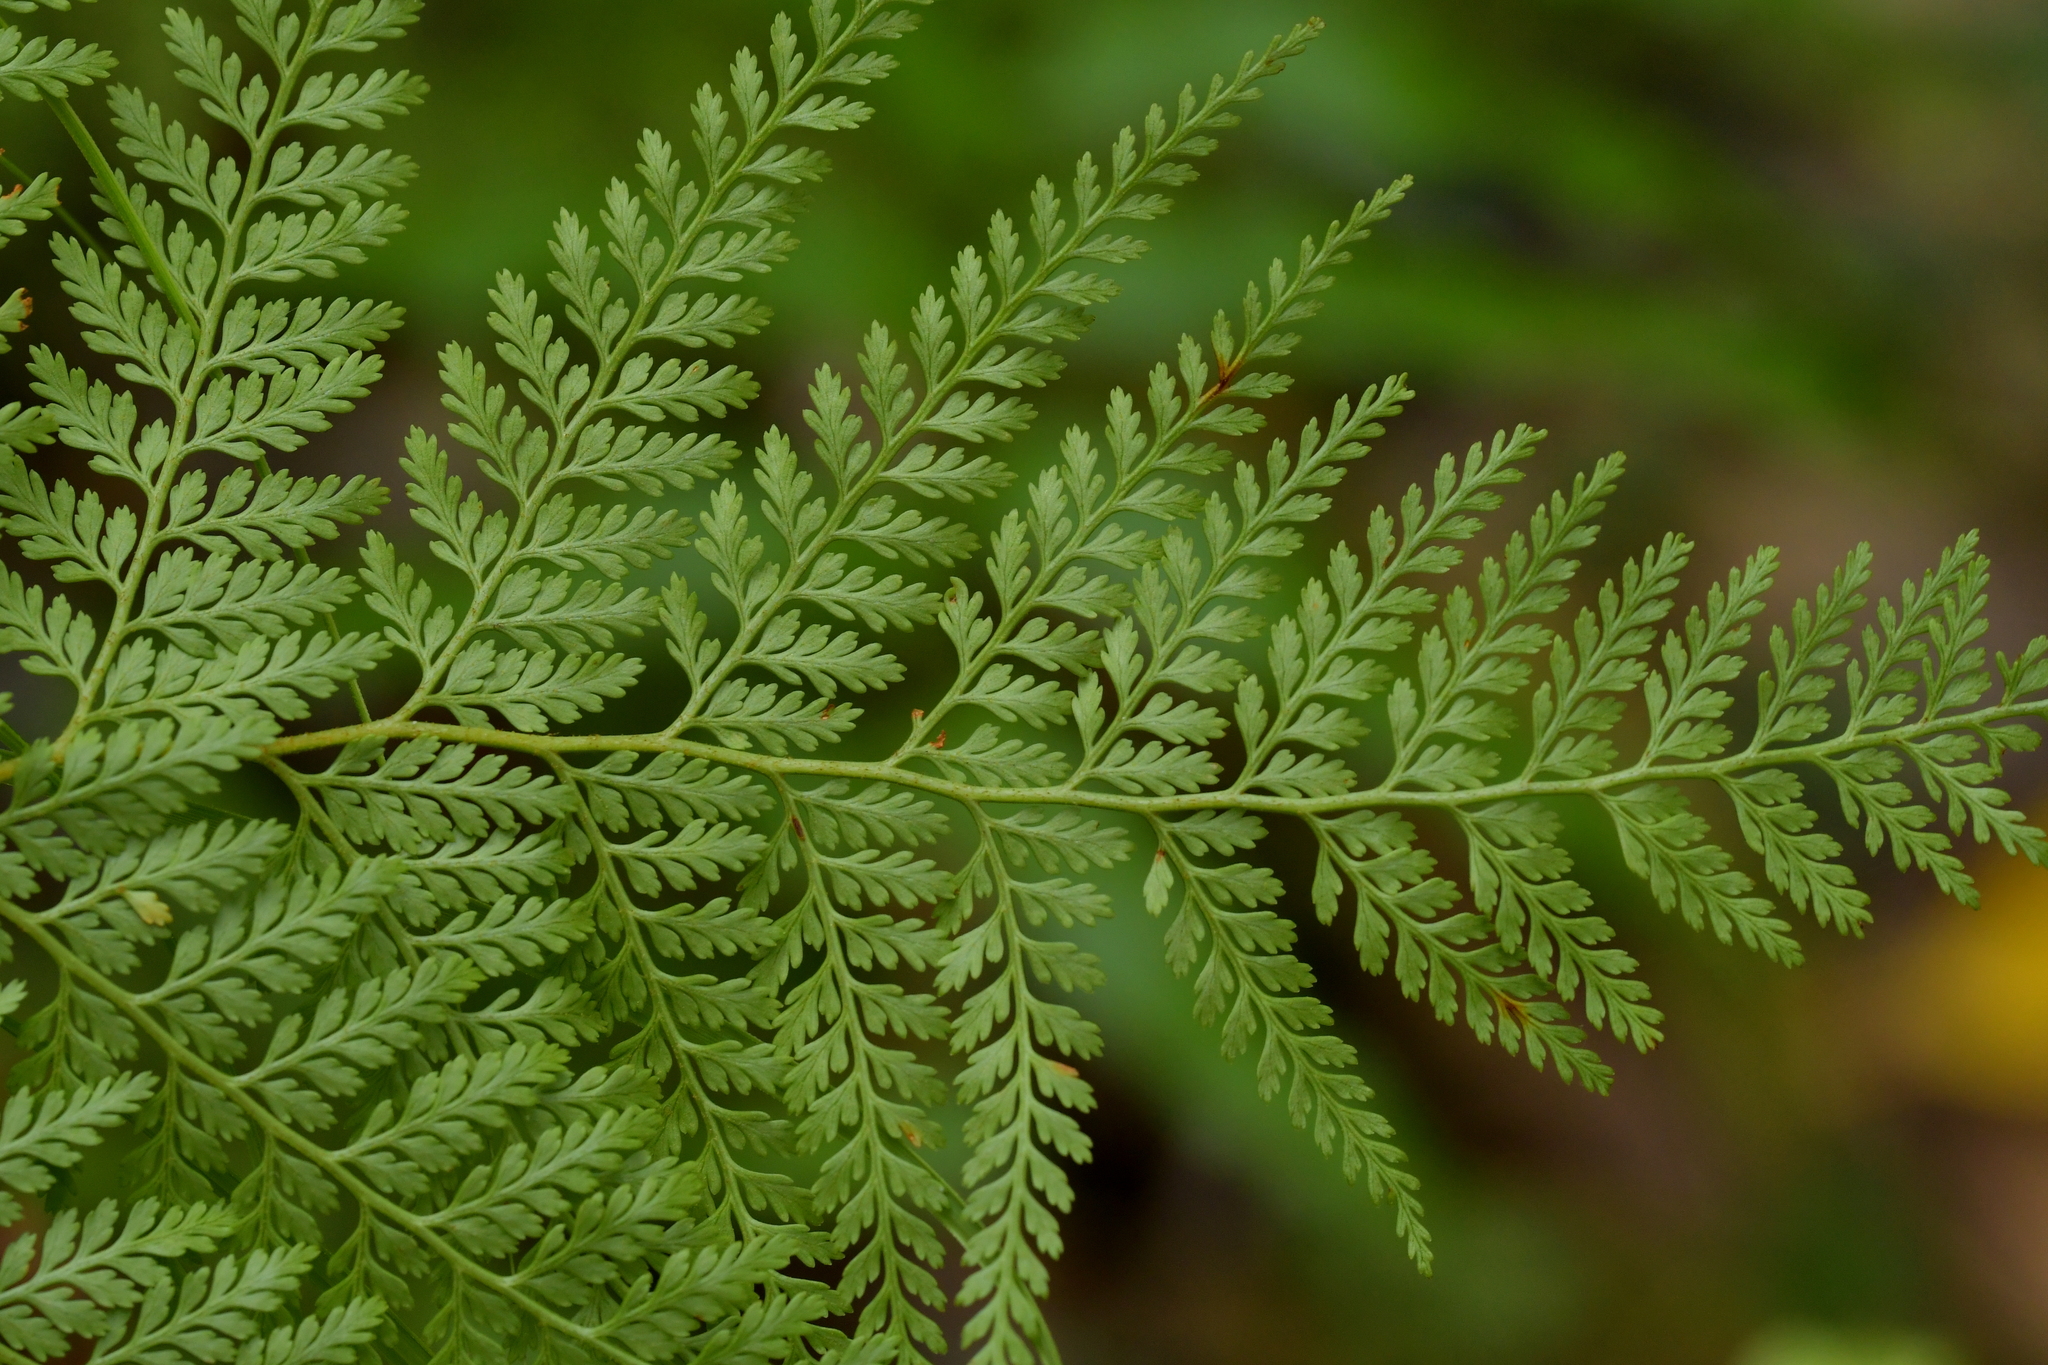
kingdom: Plantae
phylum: Tracheophyta
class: Polypodiopsida
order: Polypodiales
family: Dennstaedtiaceae
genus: Paesia
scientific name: Paesia scaberula
